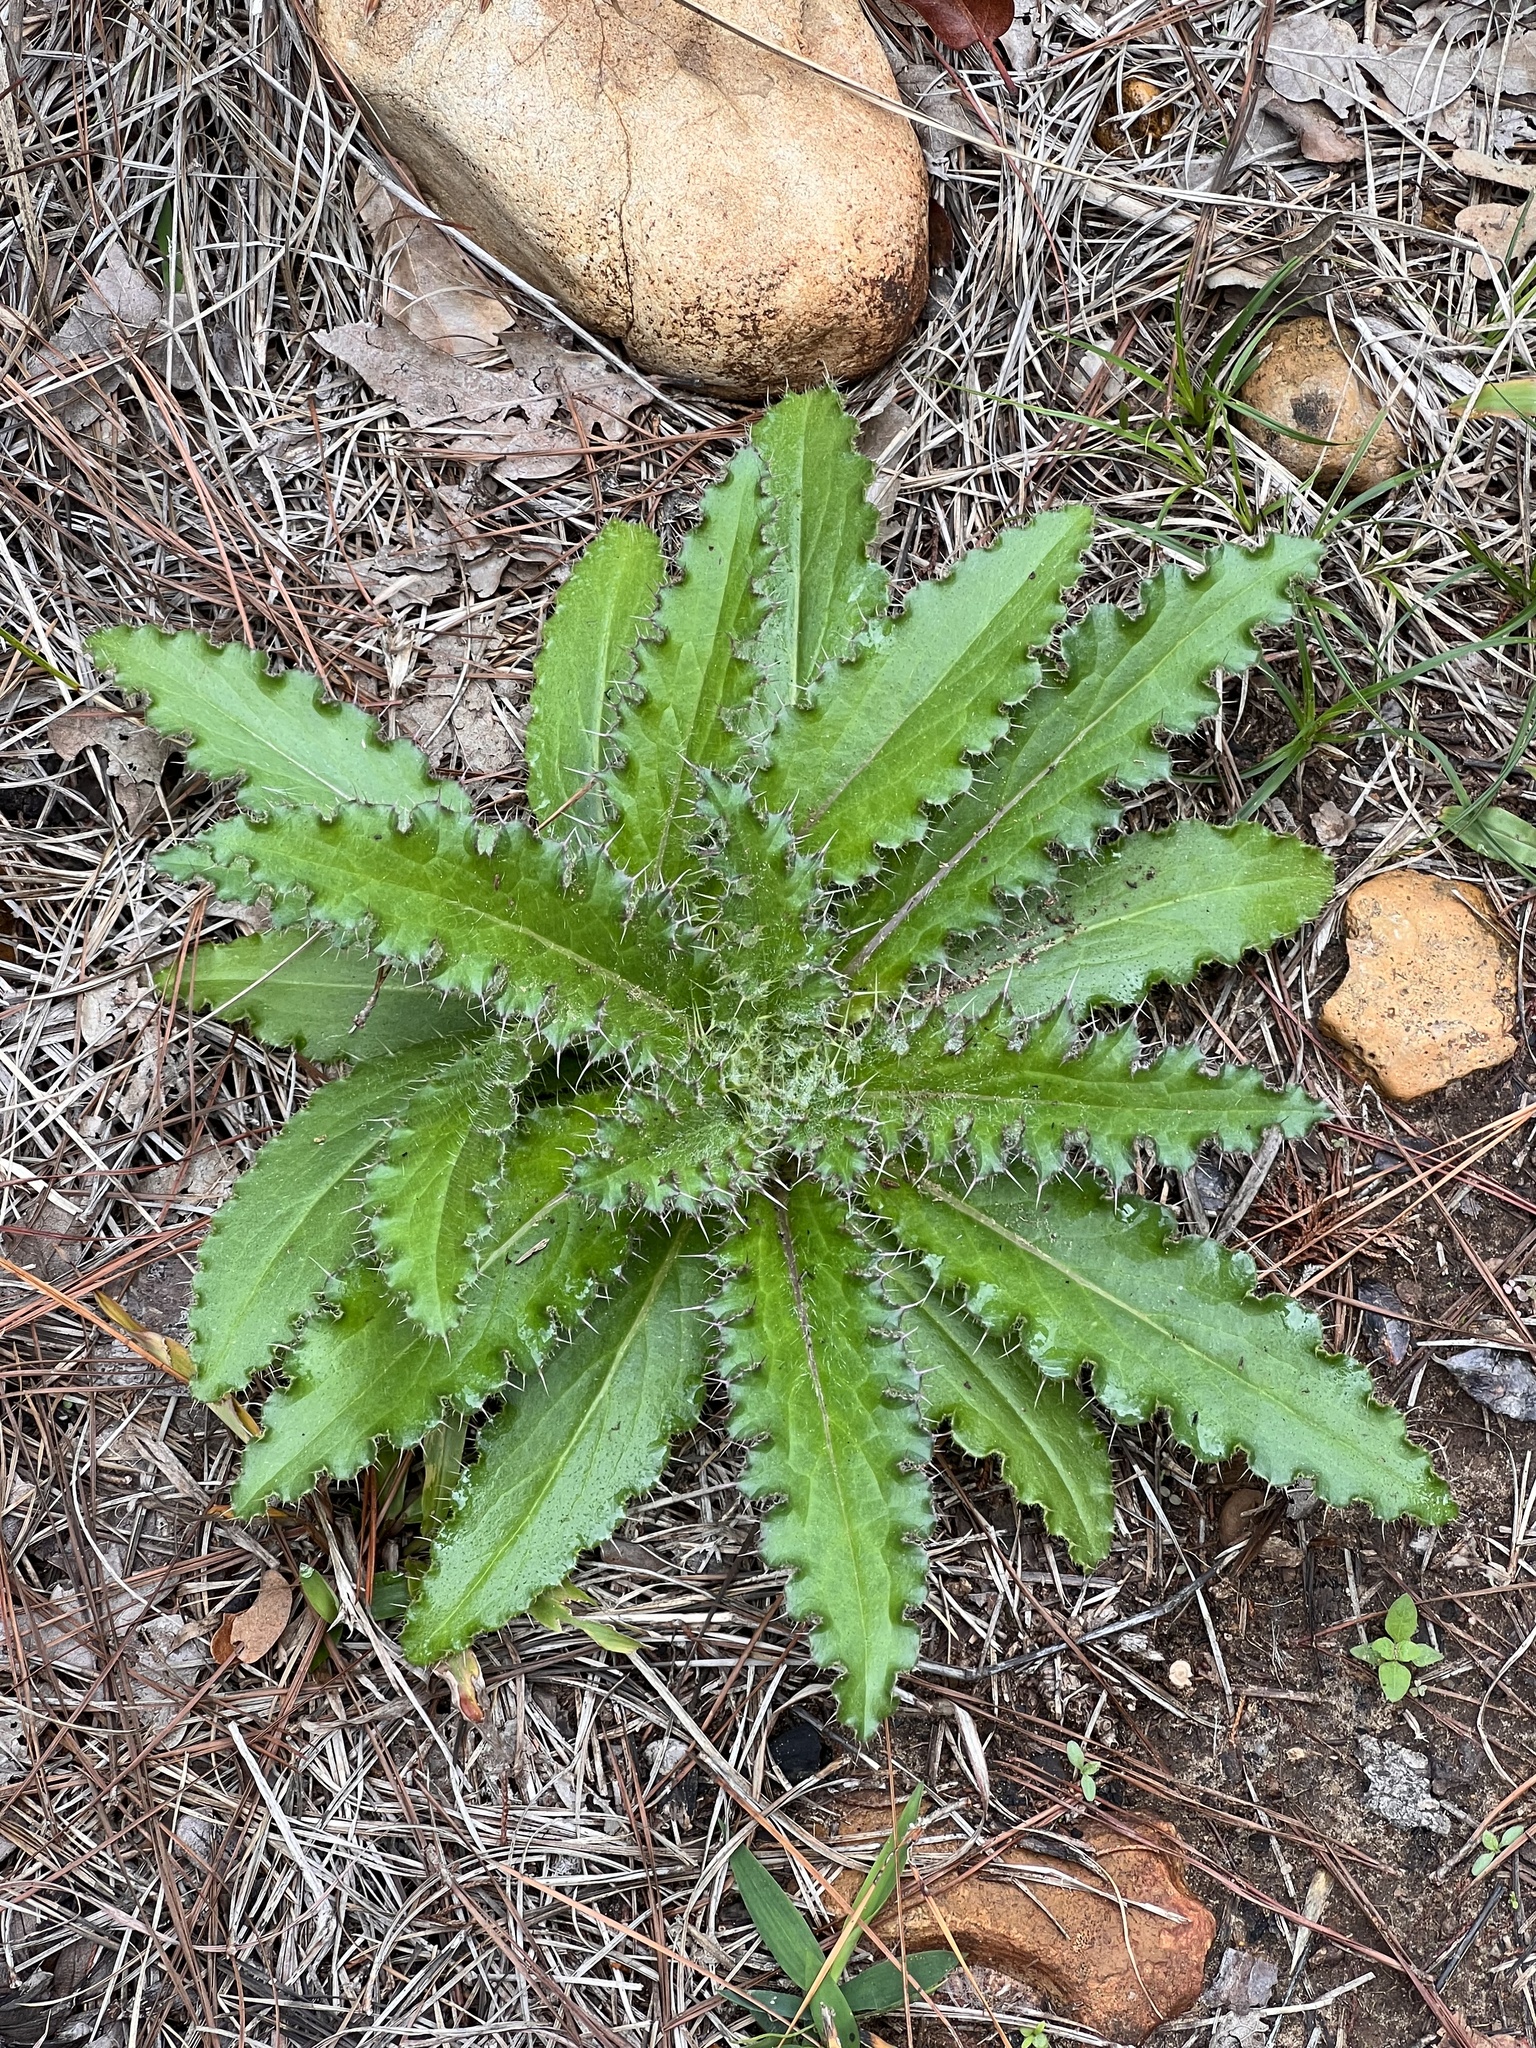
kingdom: Plantae
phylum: Tracheophyta
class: Magnoliopsida
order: Asterales
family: Asteraceae
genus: Cirsium
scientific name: Cirsium horridulum
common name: Bristly thistle
